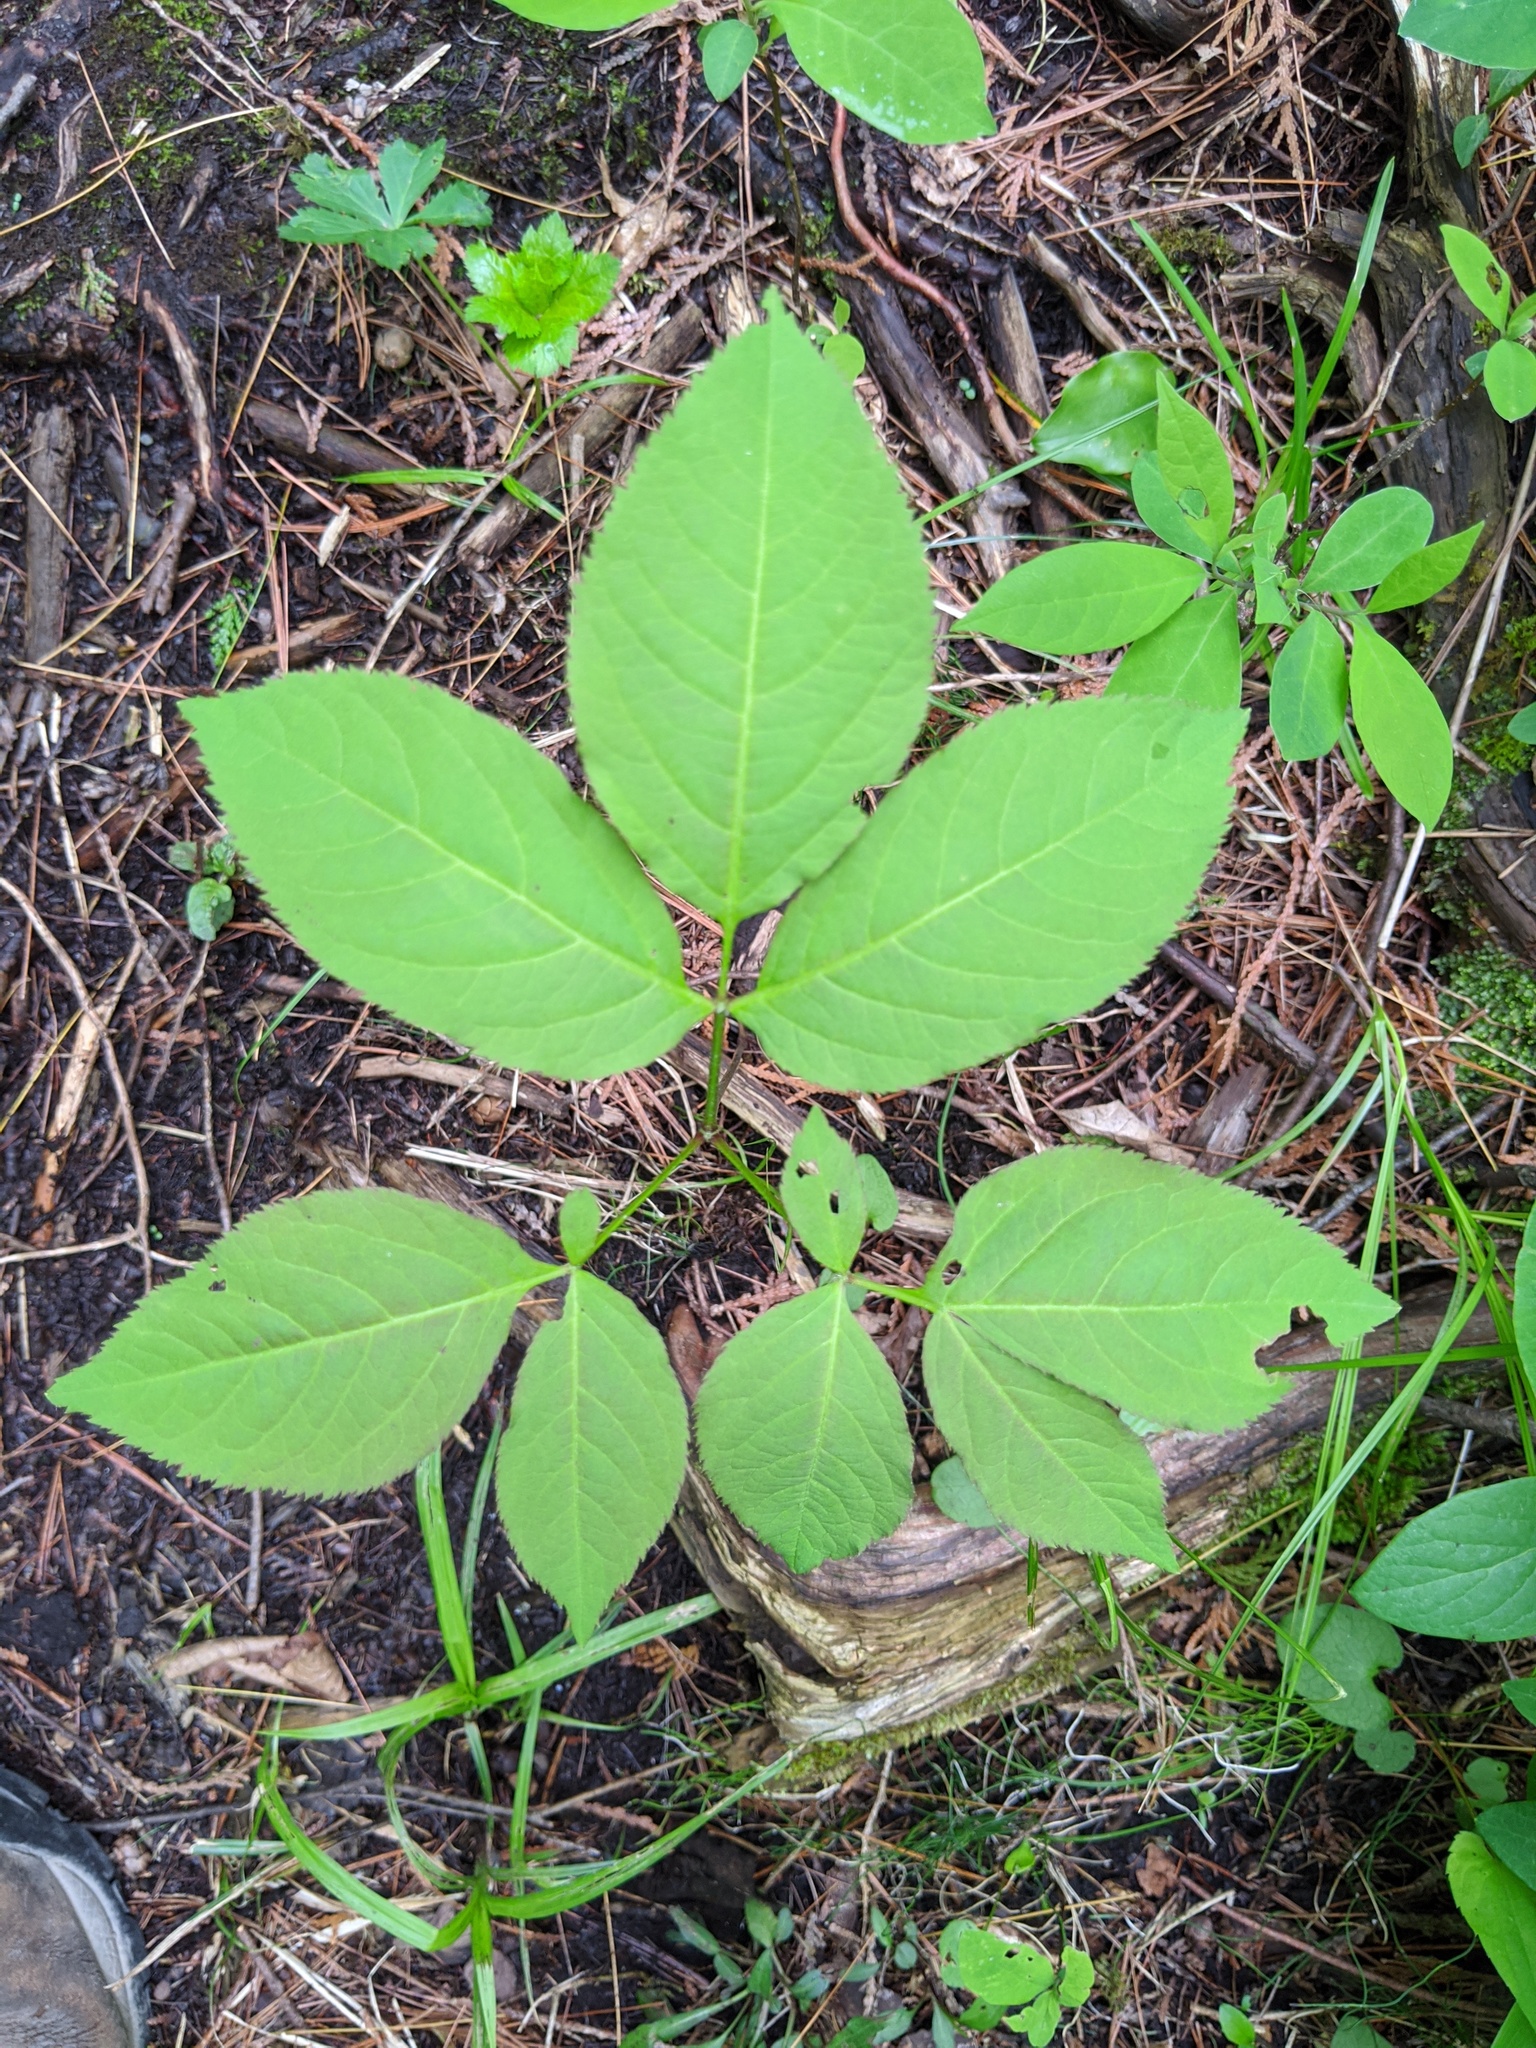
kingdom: Plantae
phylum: Tracheophyta
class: Magnoliopsida
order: Apiales
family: Araliaceae
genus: Aralia
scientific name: Aralia nudicaulis
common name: Wild sarsaparilla
